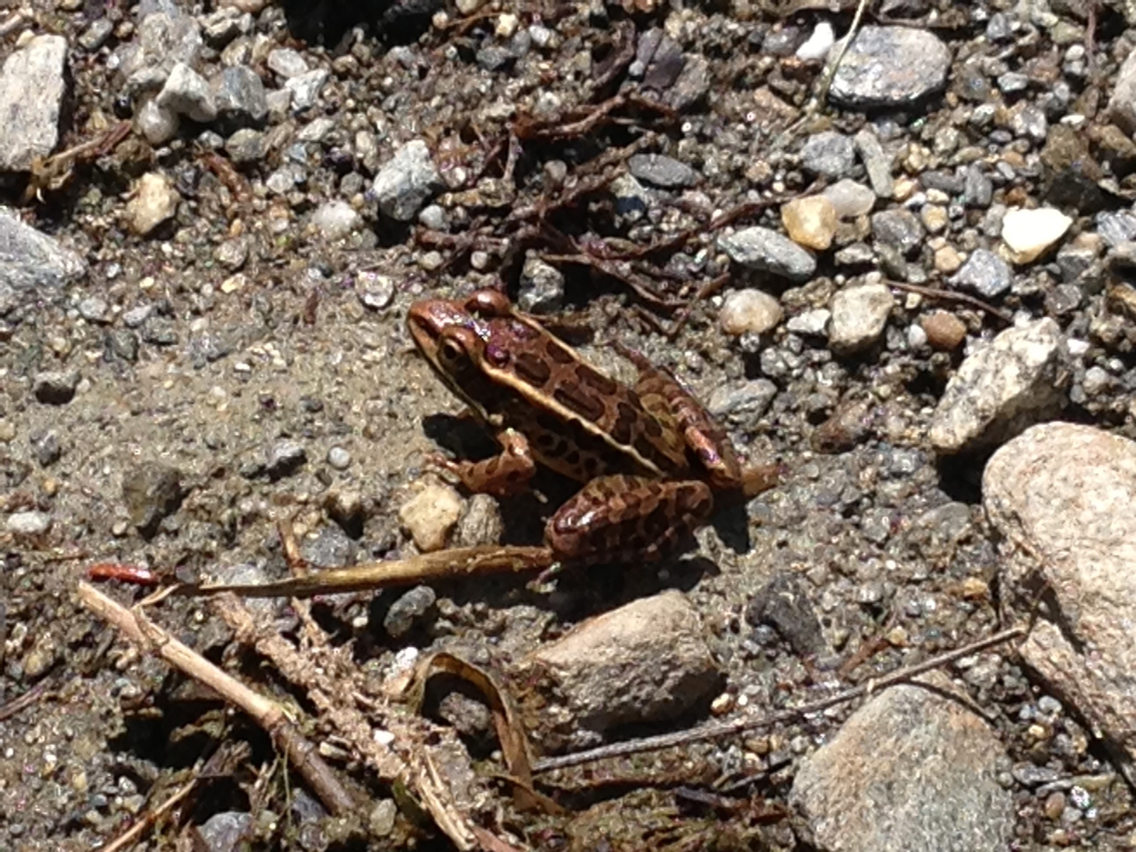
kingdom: Animalia
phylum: Chordata
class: Amphibia
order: Anura
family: Ranidae
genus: Lithobates
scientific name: Lithobates palustris
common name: Pickerel frog
